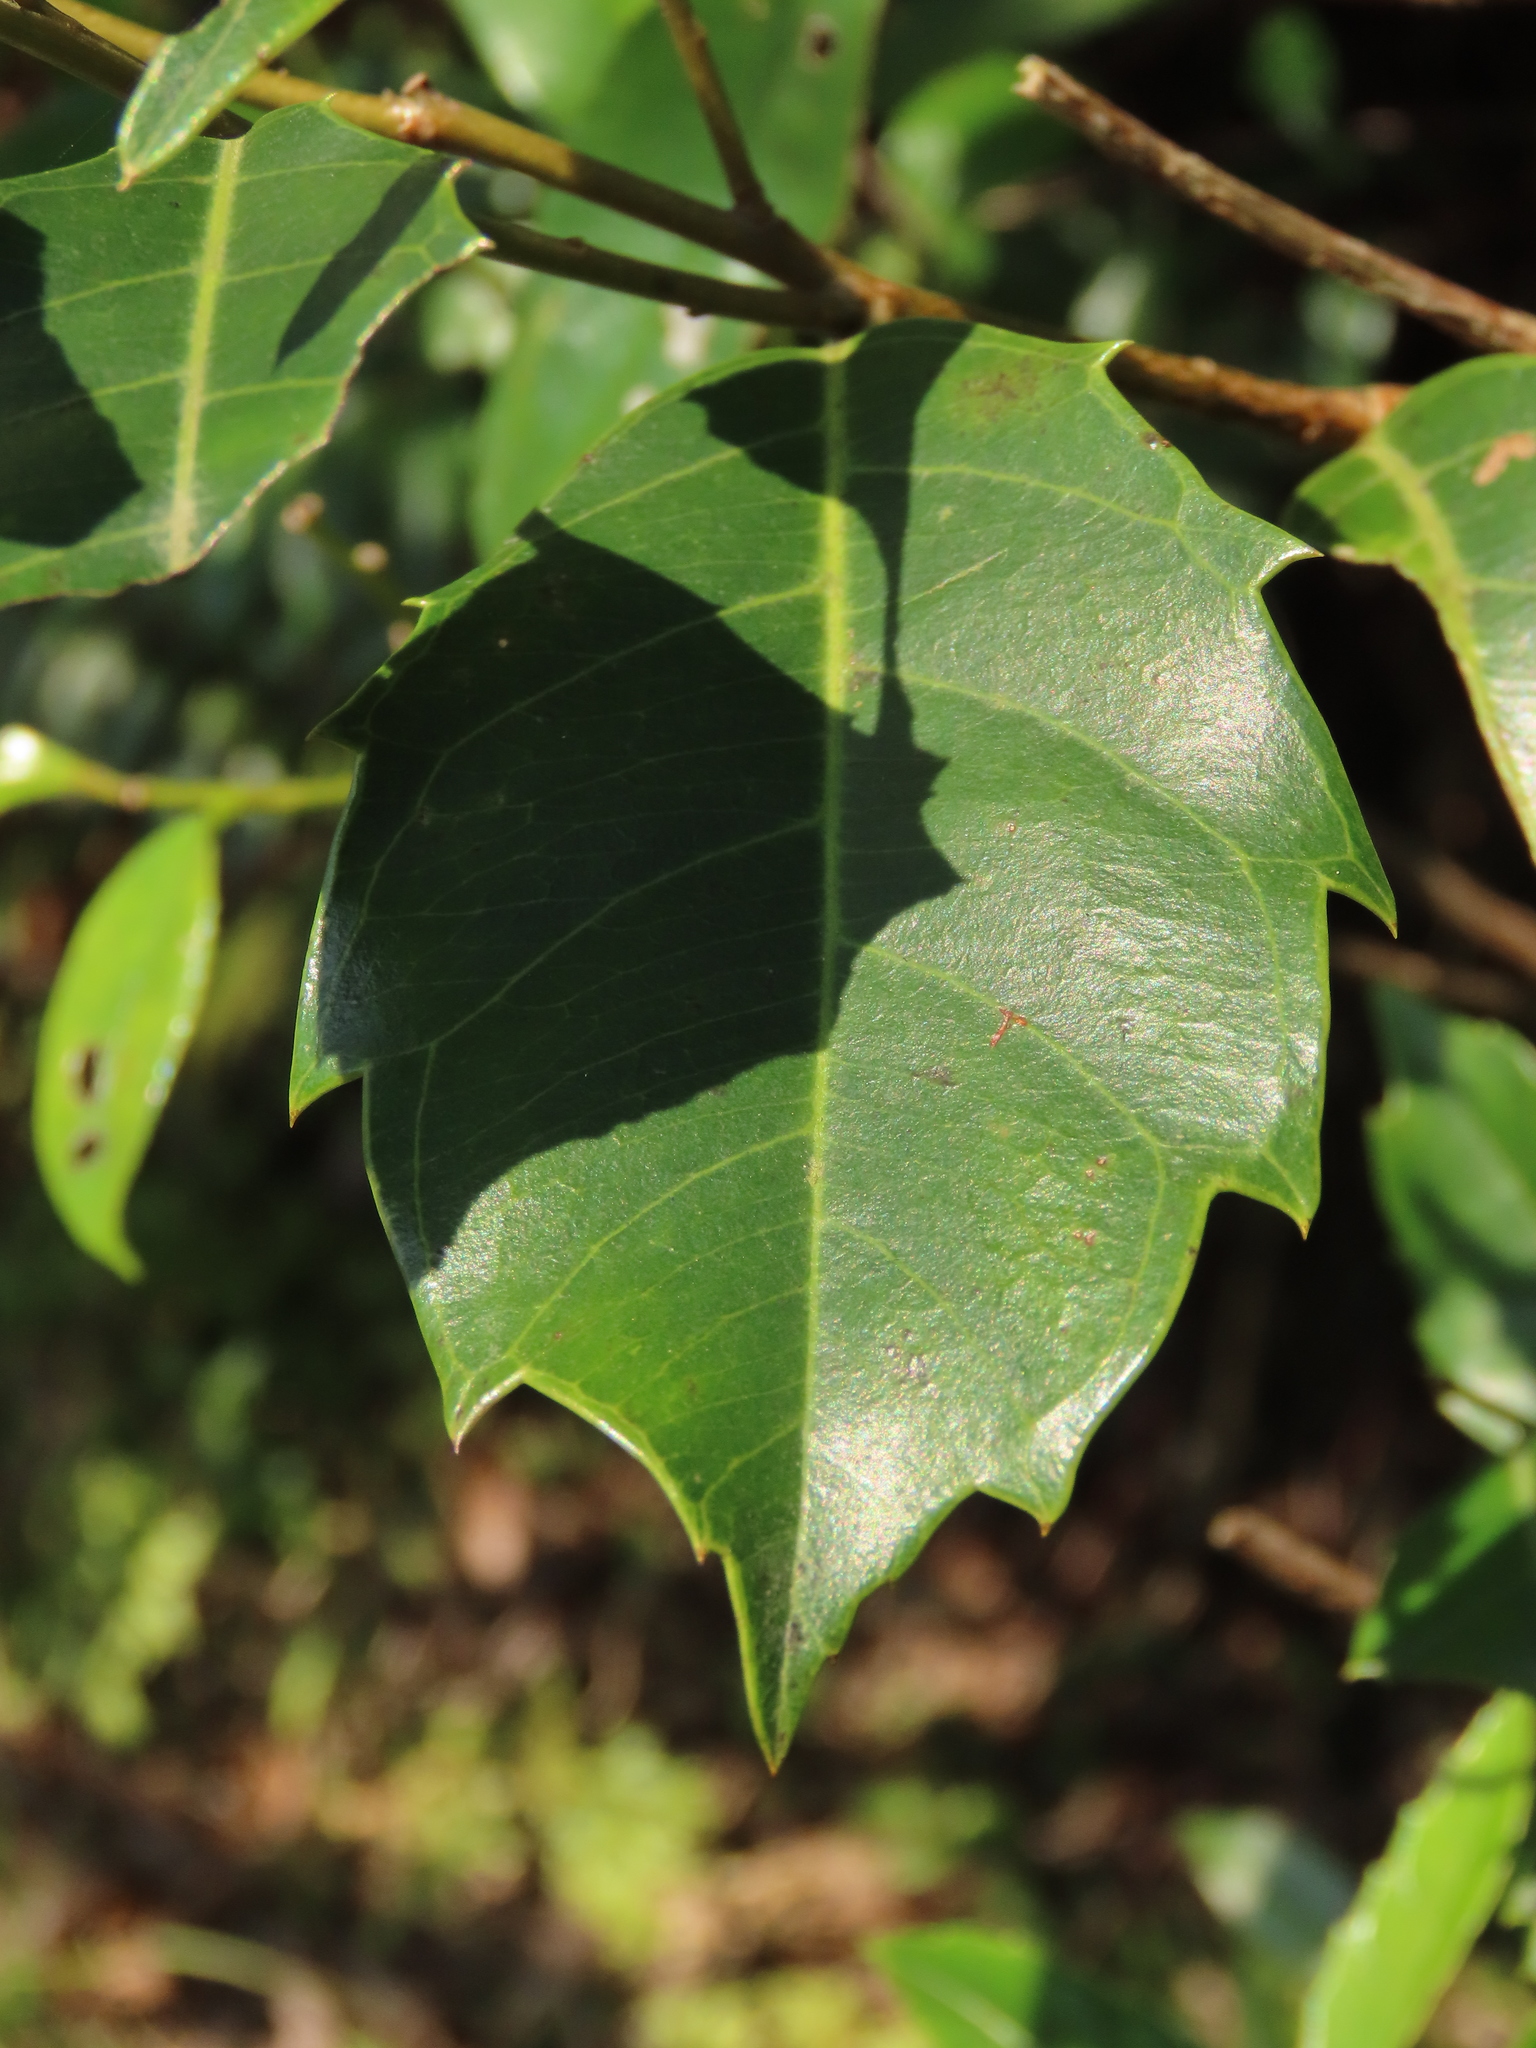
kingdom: Plantae
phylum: Tracheophyta
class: Magnoliopsida
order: Saxifragales
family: Iteaceae
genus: Itea
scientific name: Itea oldhamii
